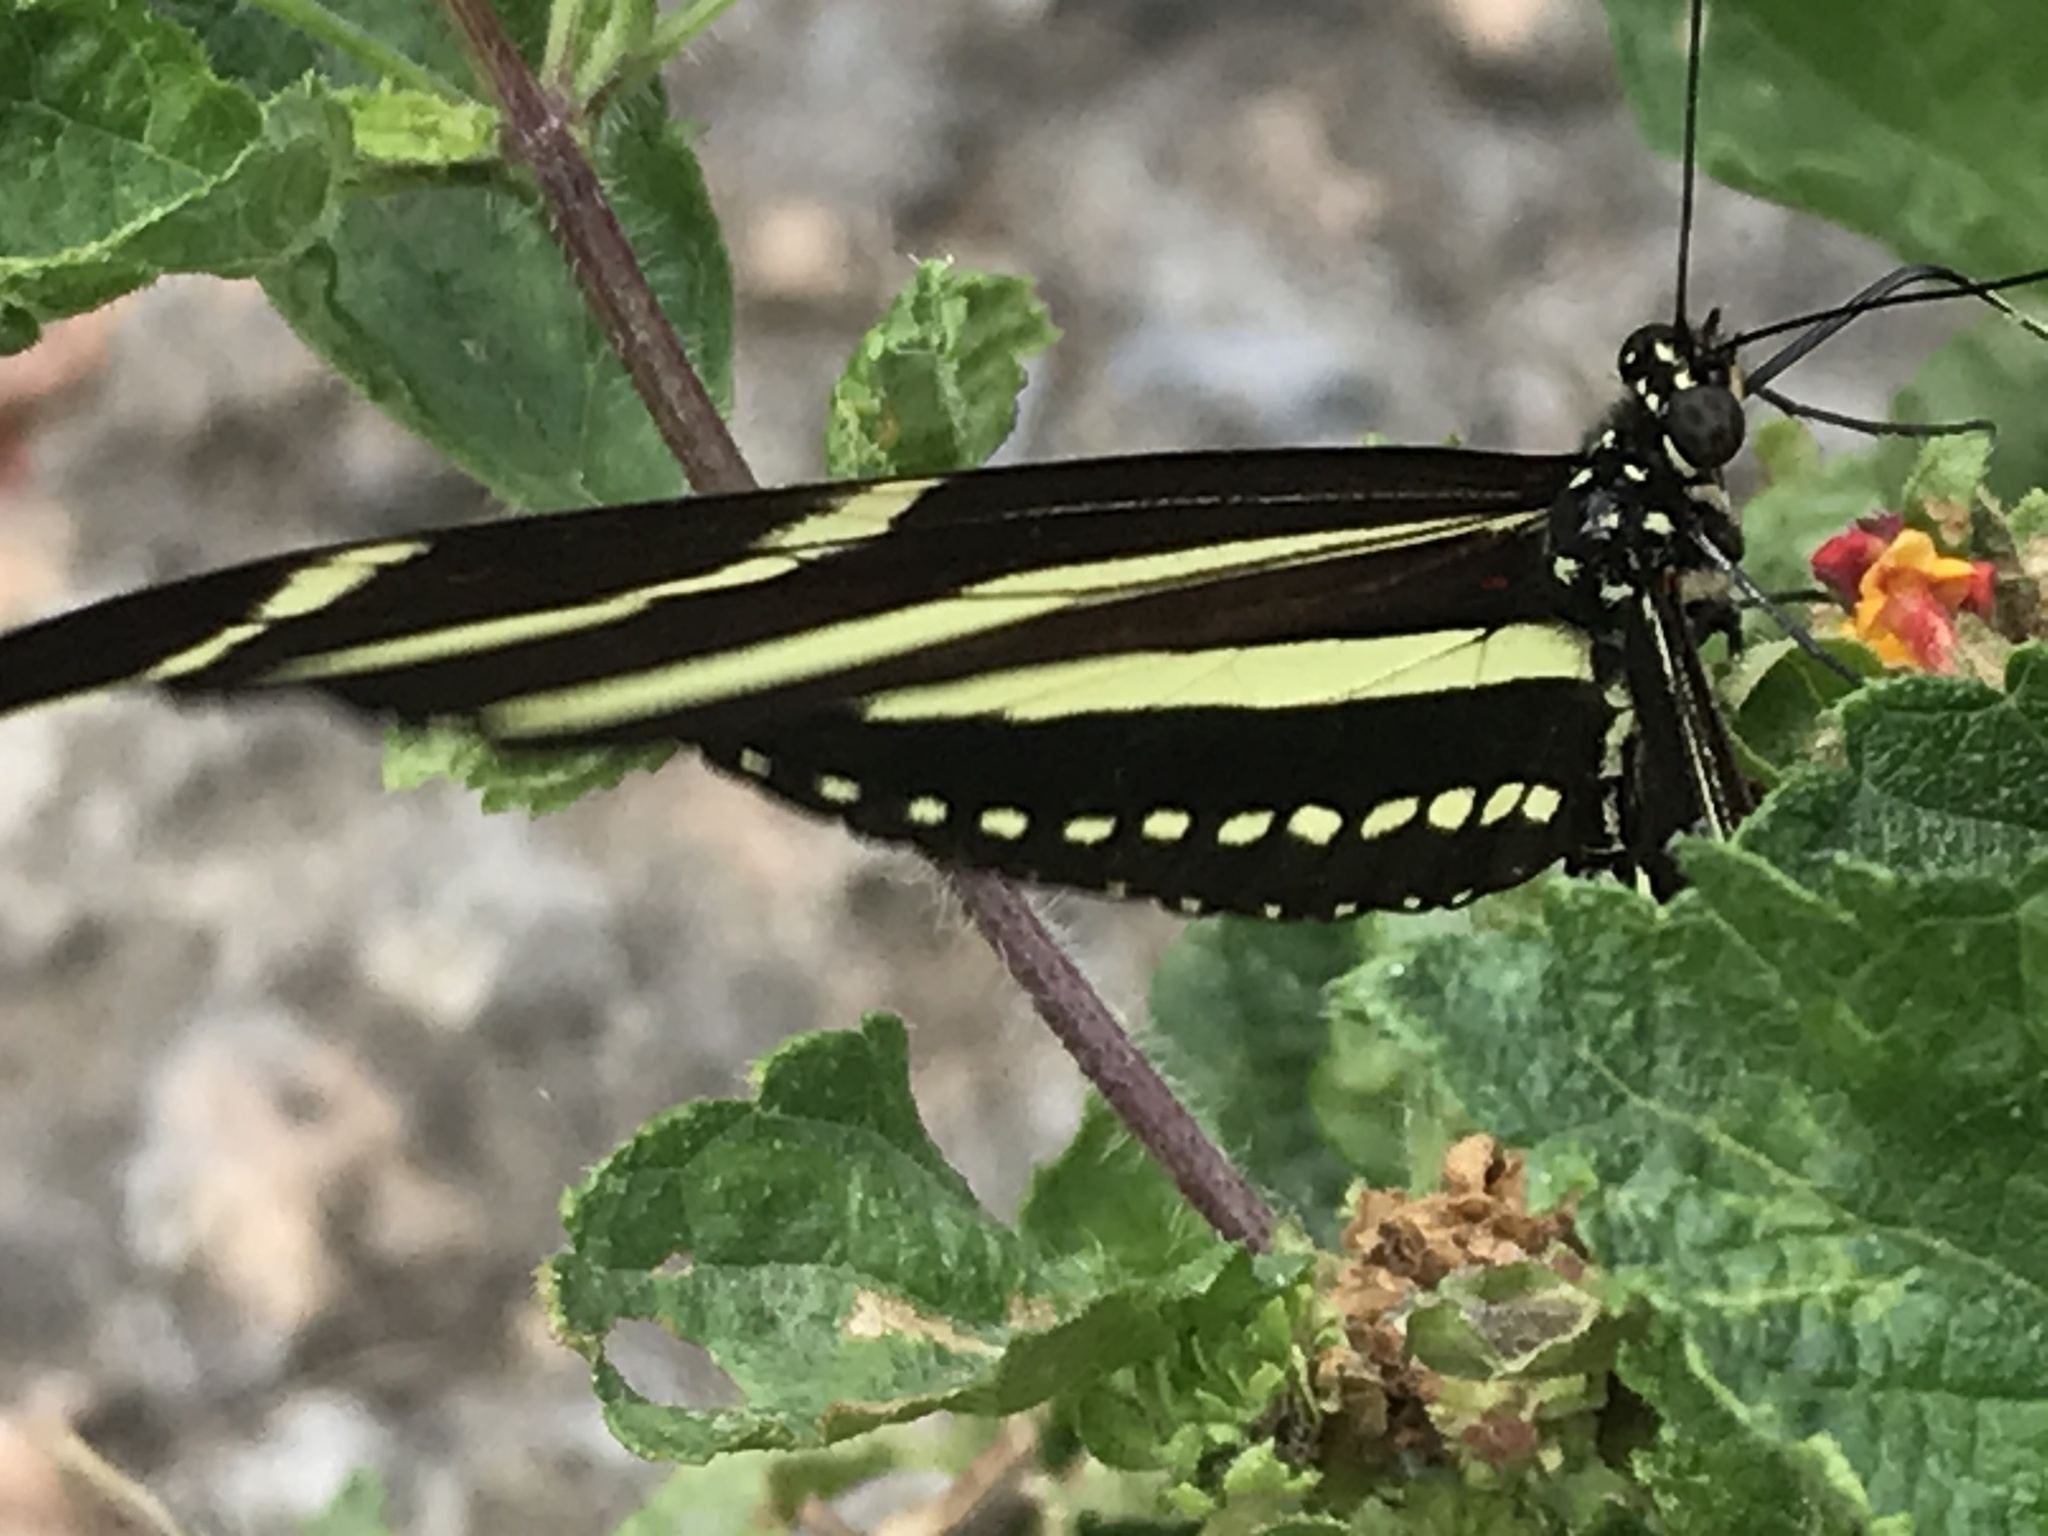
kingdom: Animalia
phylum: Arthropoda
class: Insecta
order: Lepidoptera
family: Nymphalidae
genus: Heliconius
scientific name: Heliconius charithonia
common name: Zebra long wing
